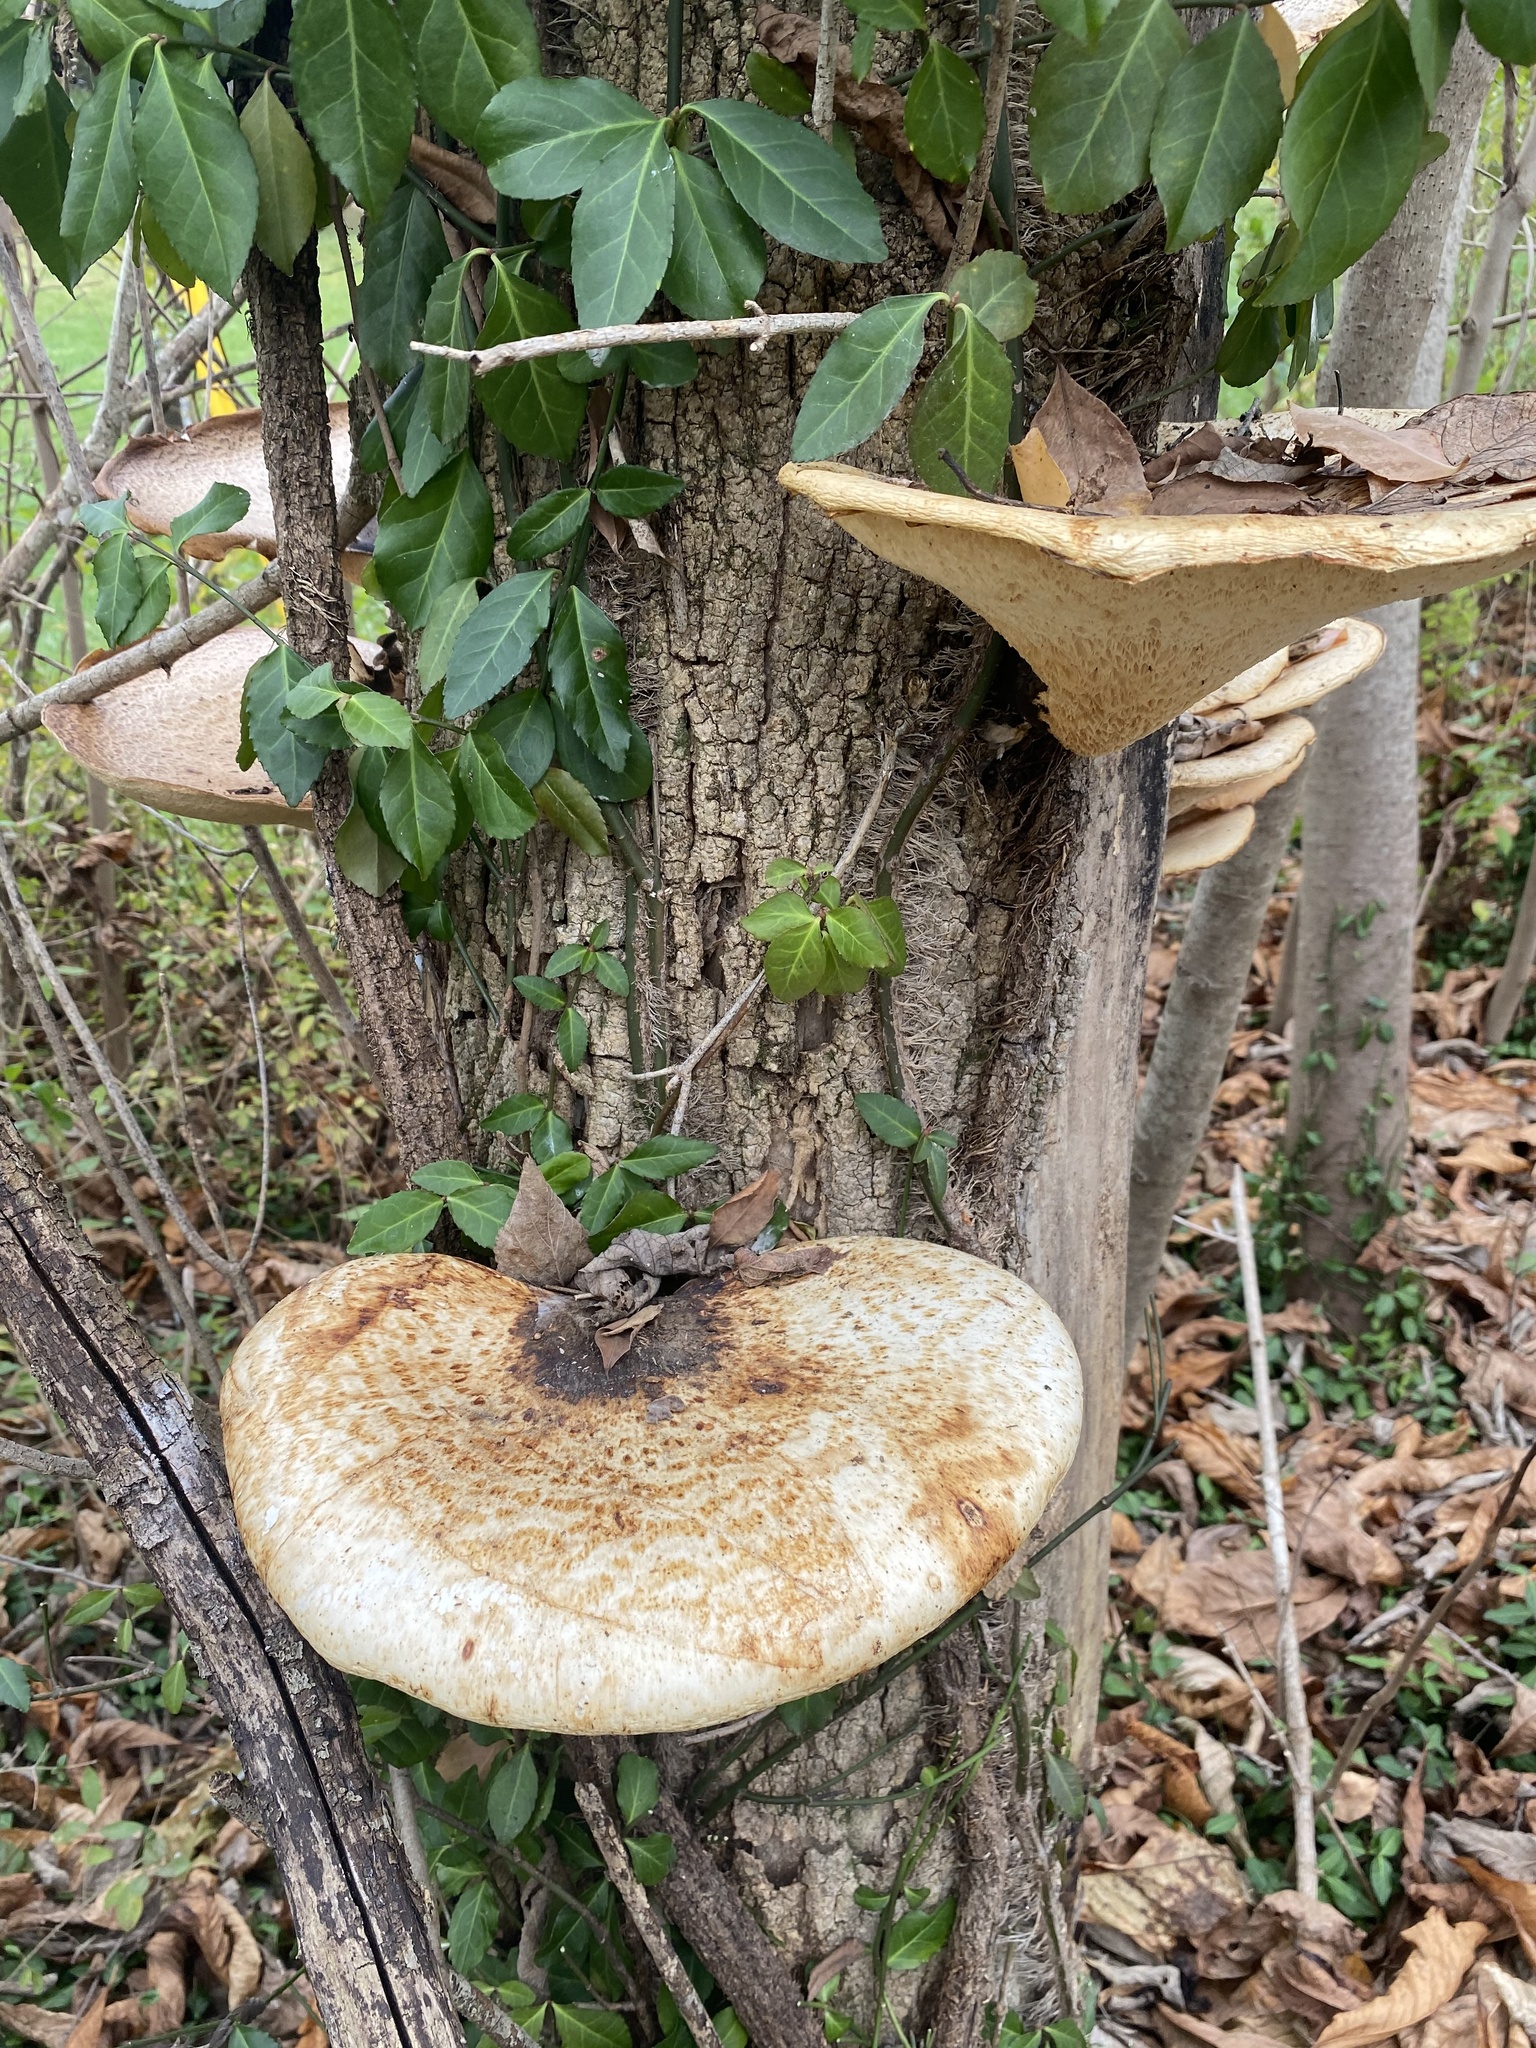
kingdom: Fungi
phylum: Basidiomycota
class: Agaricomycetes
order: Polyporales
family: Polyporaceae
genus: Cerioporus
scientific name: Cerioporus squamosus
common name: Dryad's saddle
